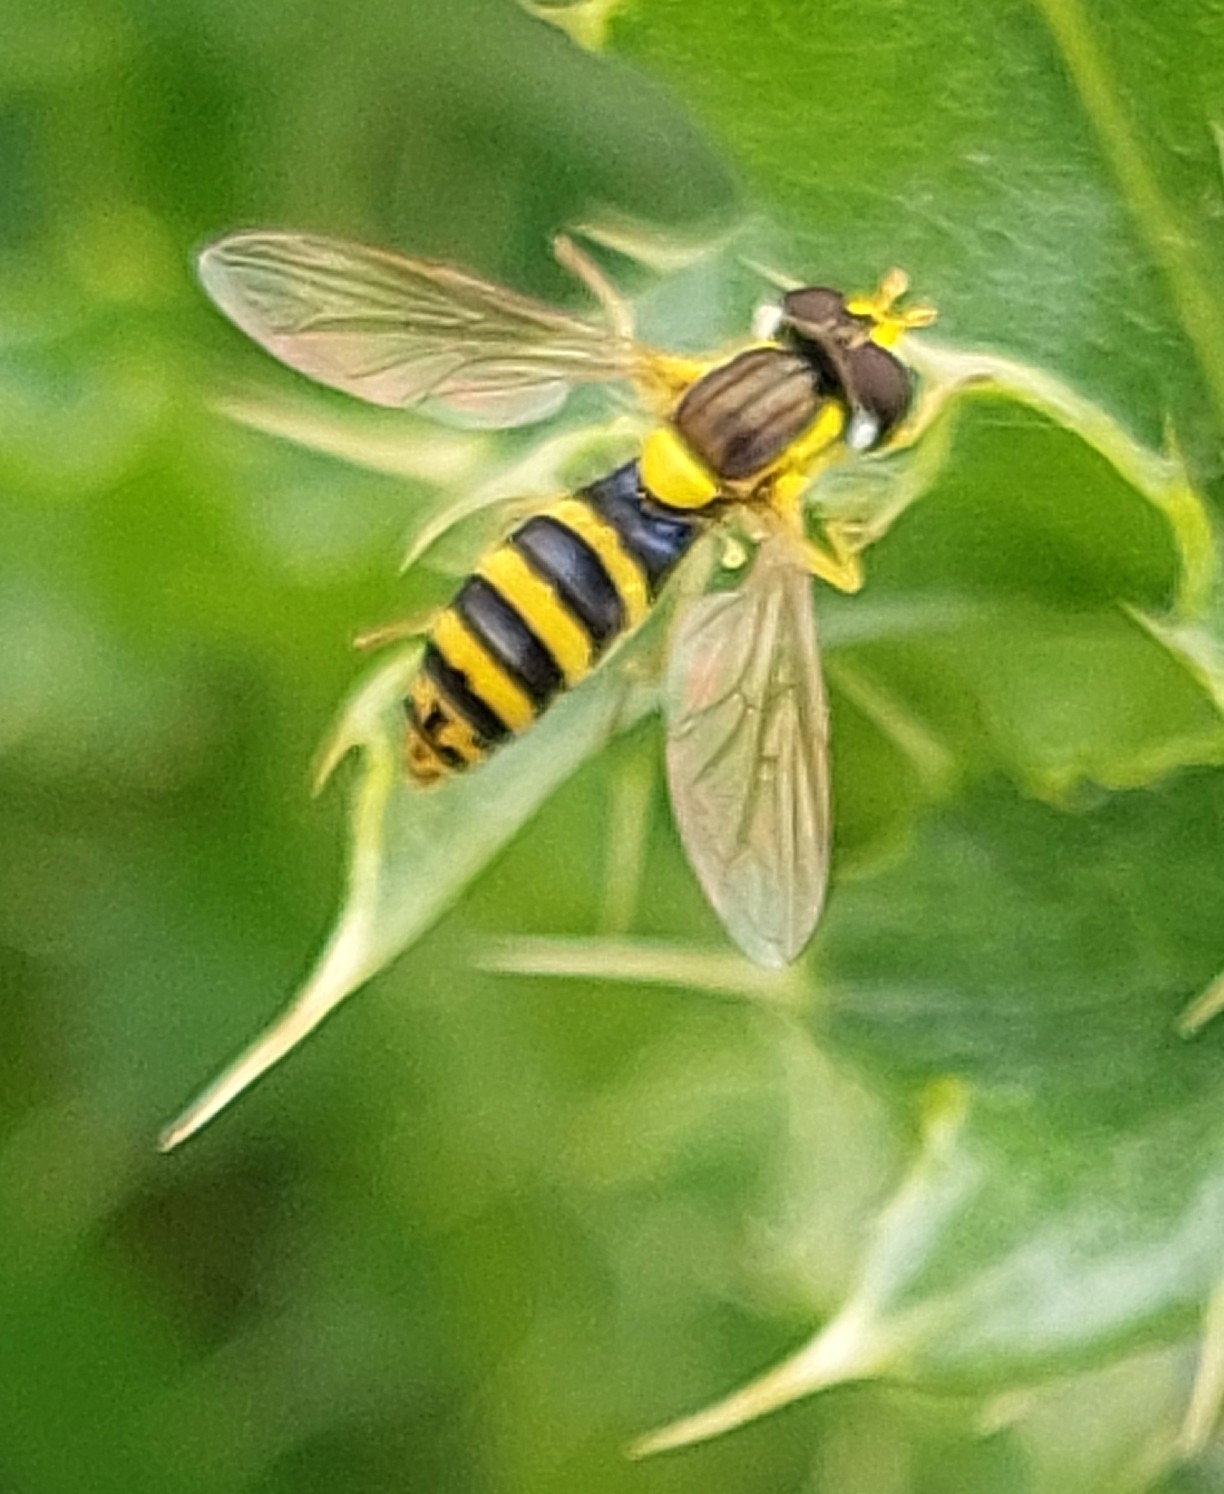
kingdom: Animalia
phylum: Arthropoda
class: Insecta
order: Diptera
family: Syrphidae
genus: Sphaerophoria
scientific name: Sphaerophoria
